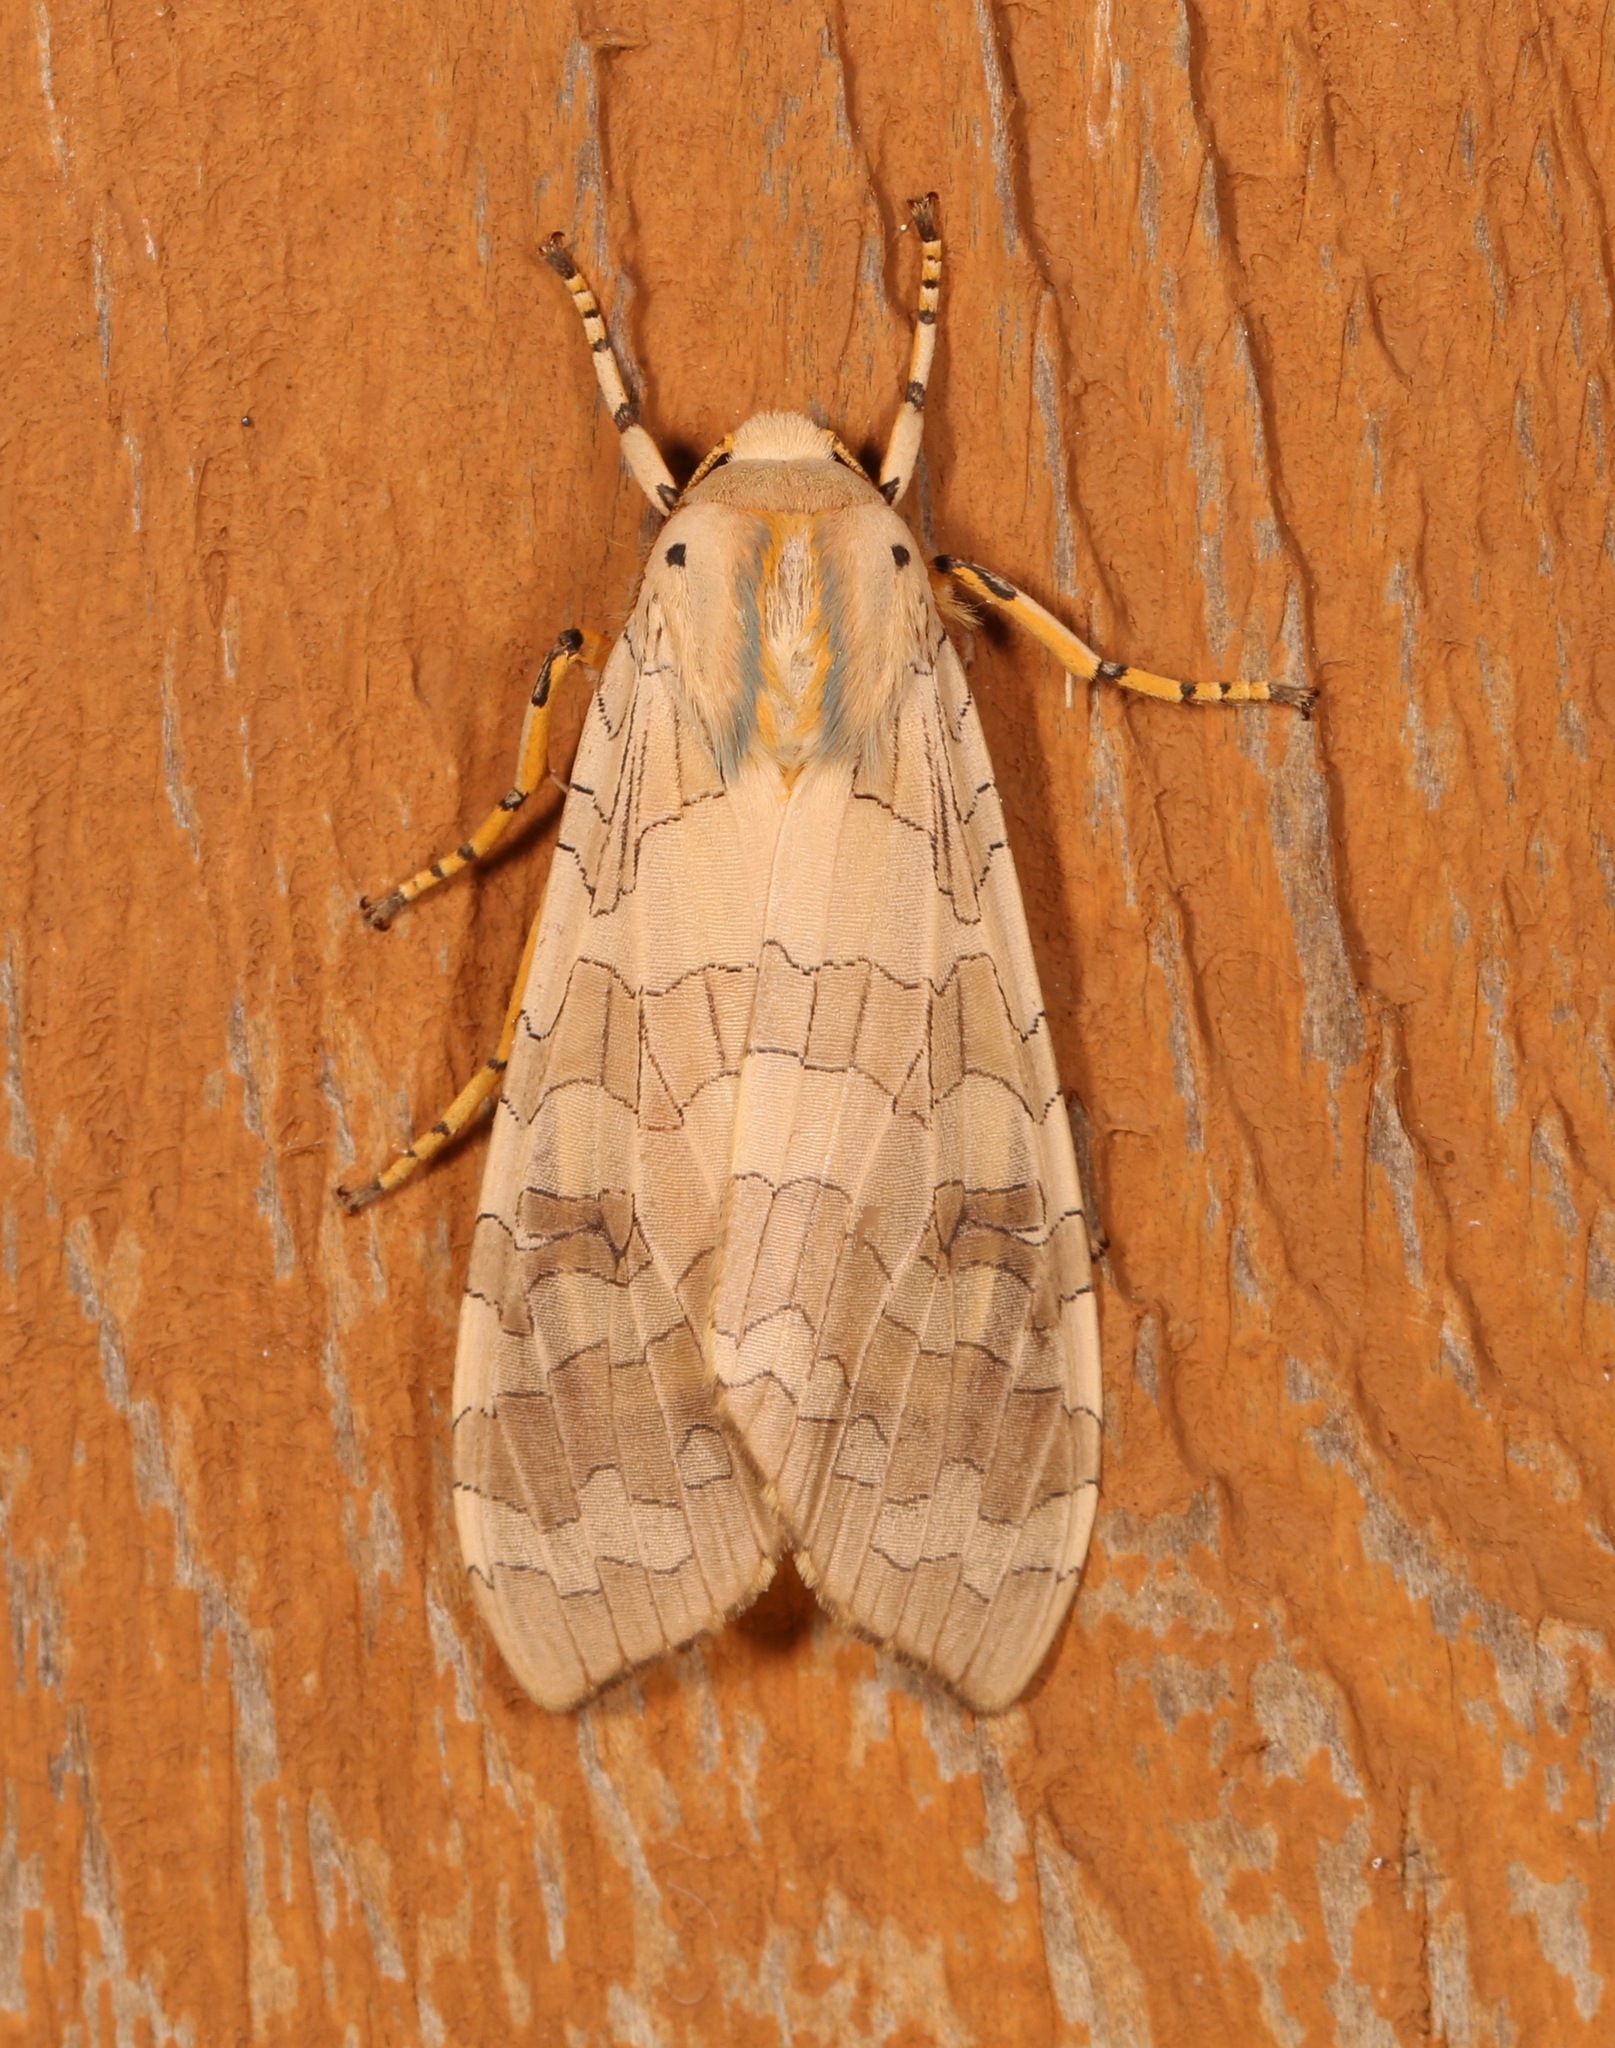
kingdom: Animalia
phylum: Arthropoda
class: Insecta
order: Lepidoptera
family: Erebidae
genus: Halysidota
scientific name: Halysidota
